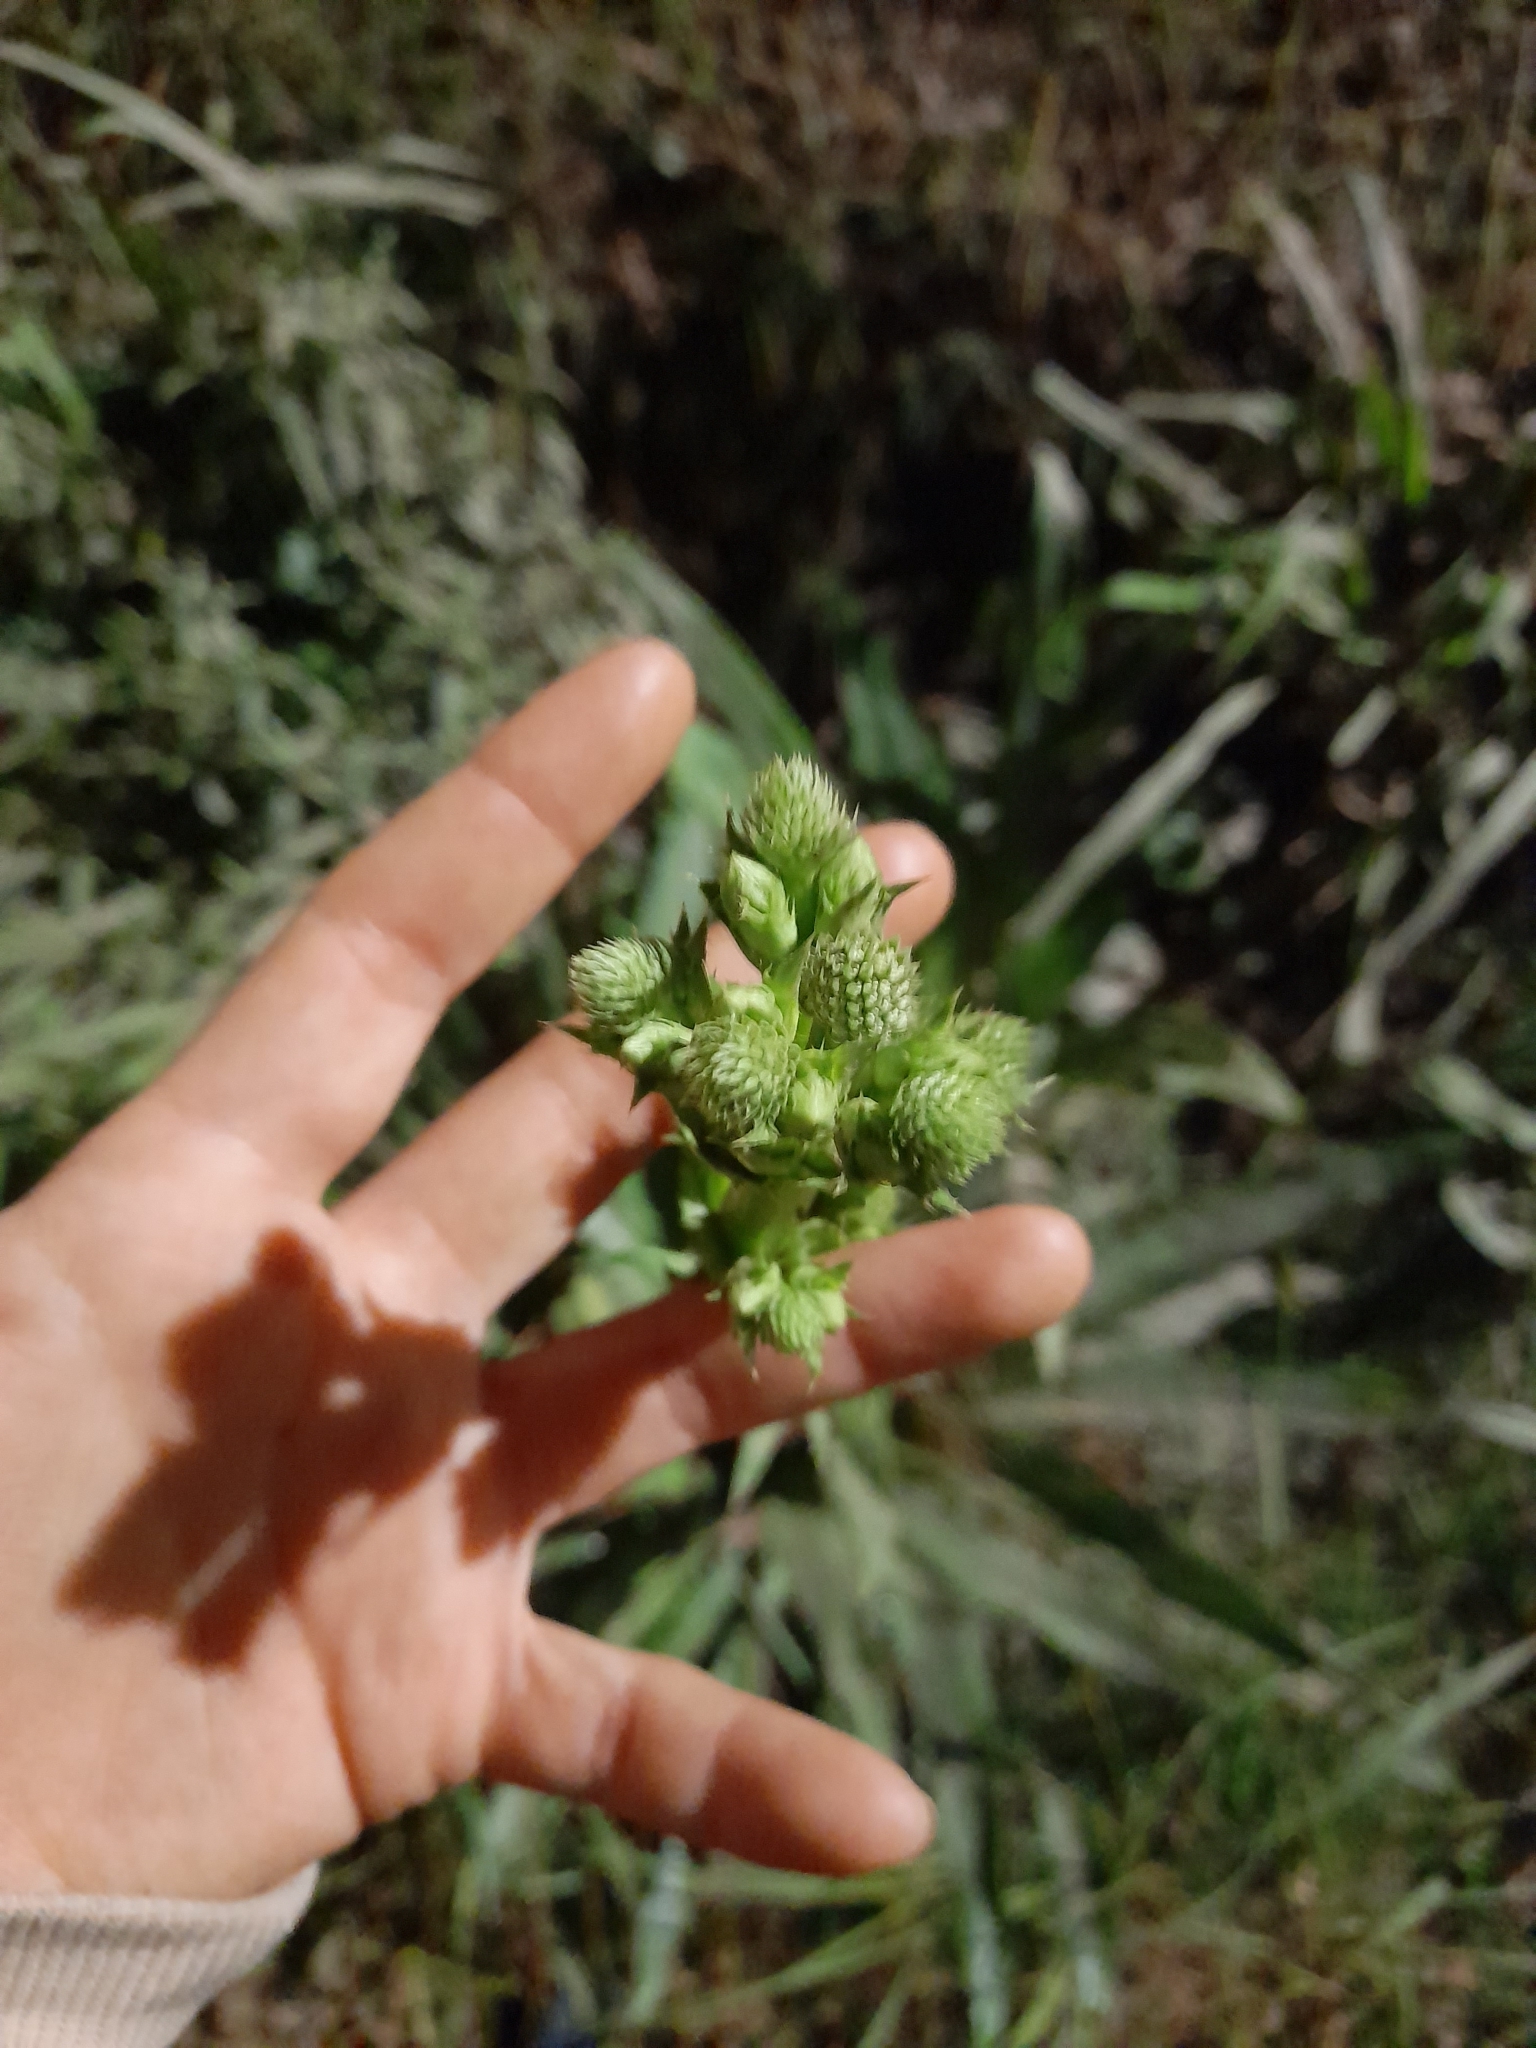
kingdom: Plantae
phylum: Tracheophyta
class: Magnoliopsida
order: Apiales
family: Apiaceae
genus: Eryngium
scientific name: Eryngium elegans
